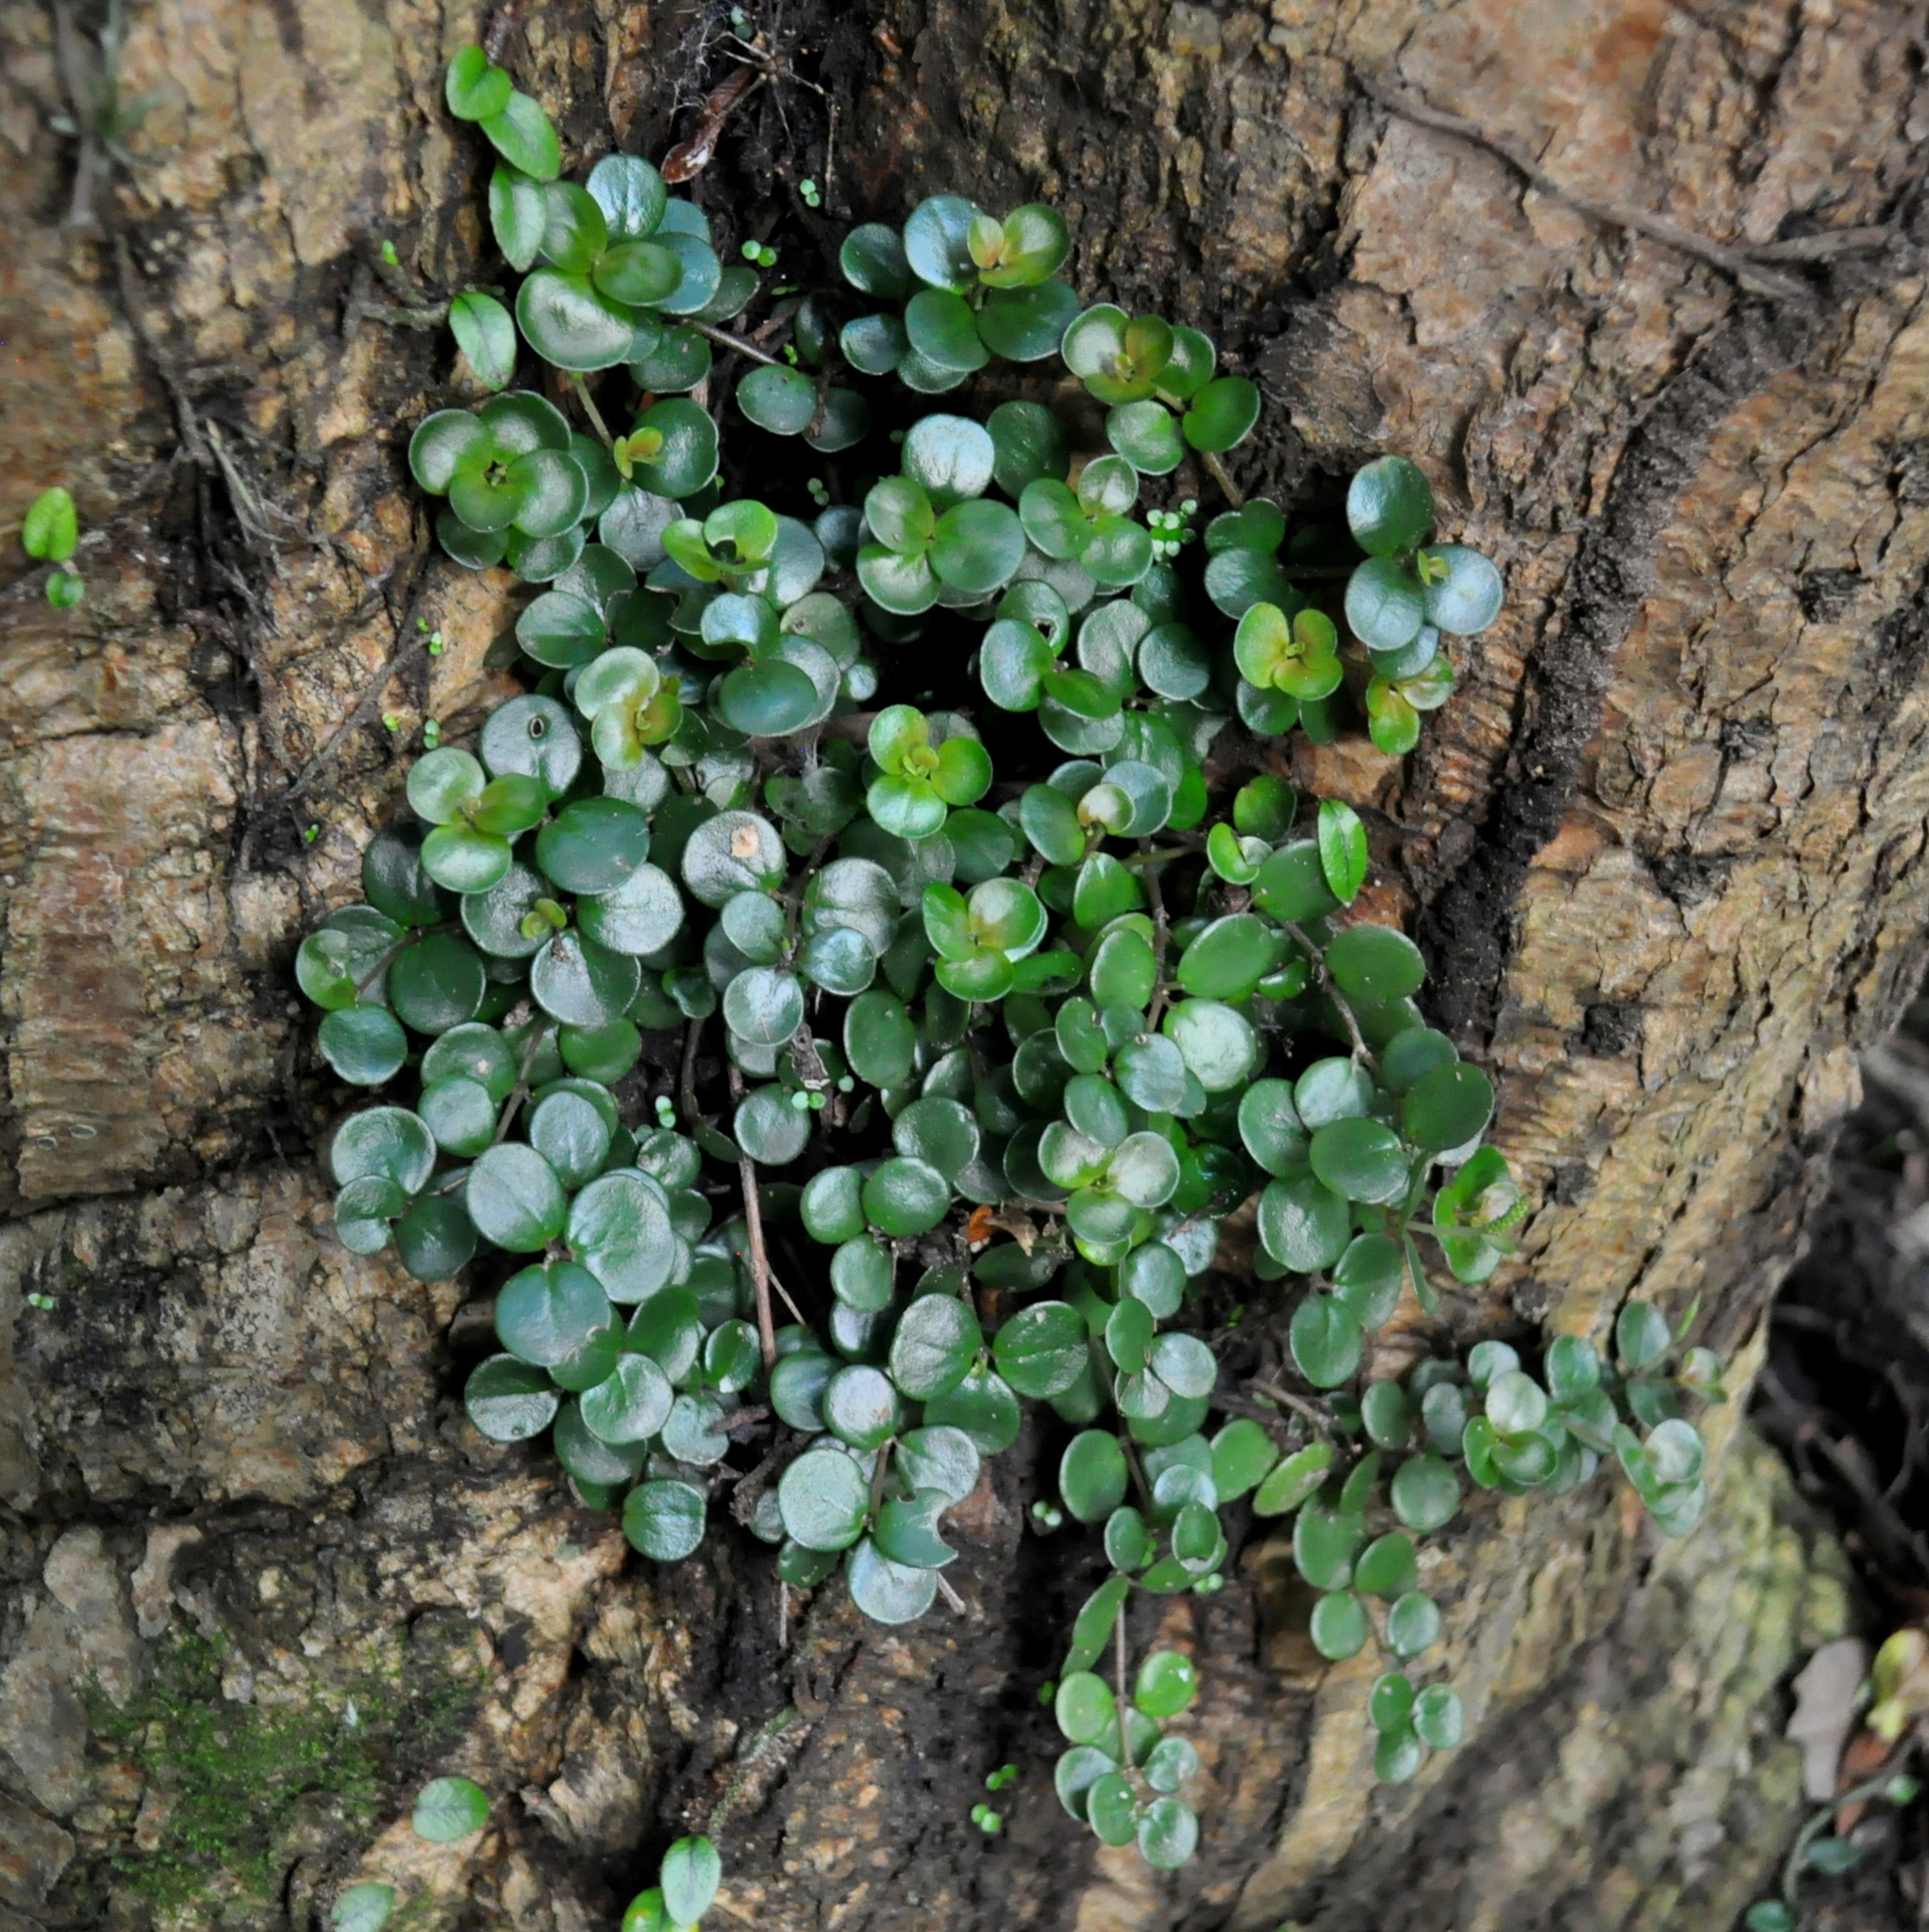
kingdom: Plantae
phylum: Tracheophyta
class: Magnoliopsida
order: Piperales
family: Piperaceae
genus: Peperomia
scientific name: Peperomia catharinae
